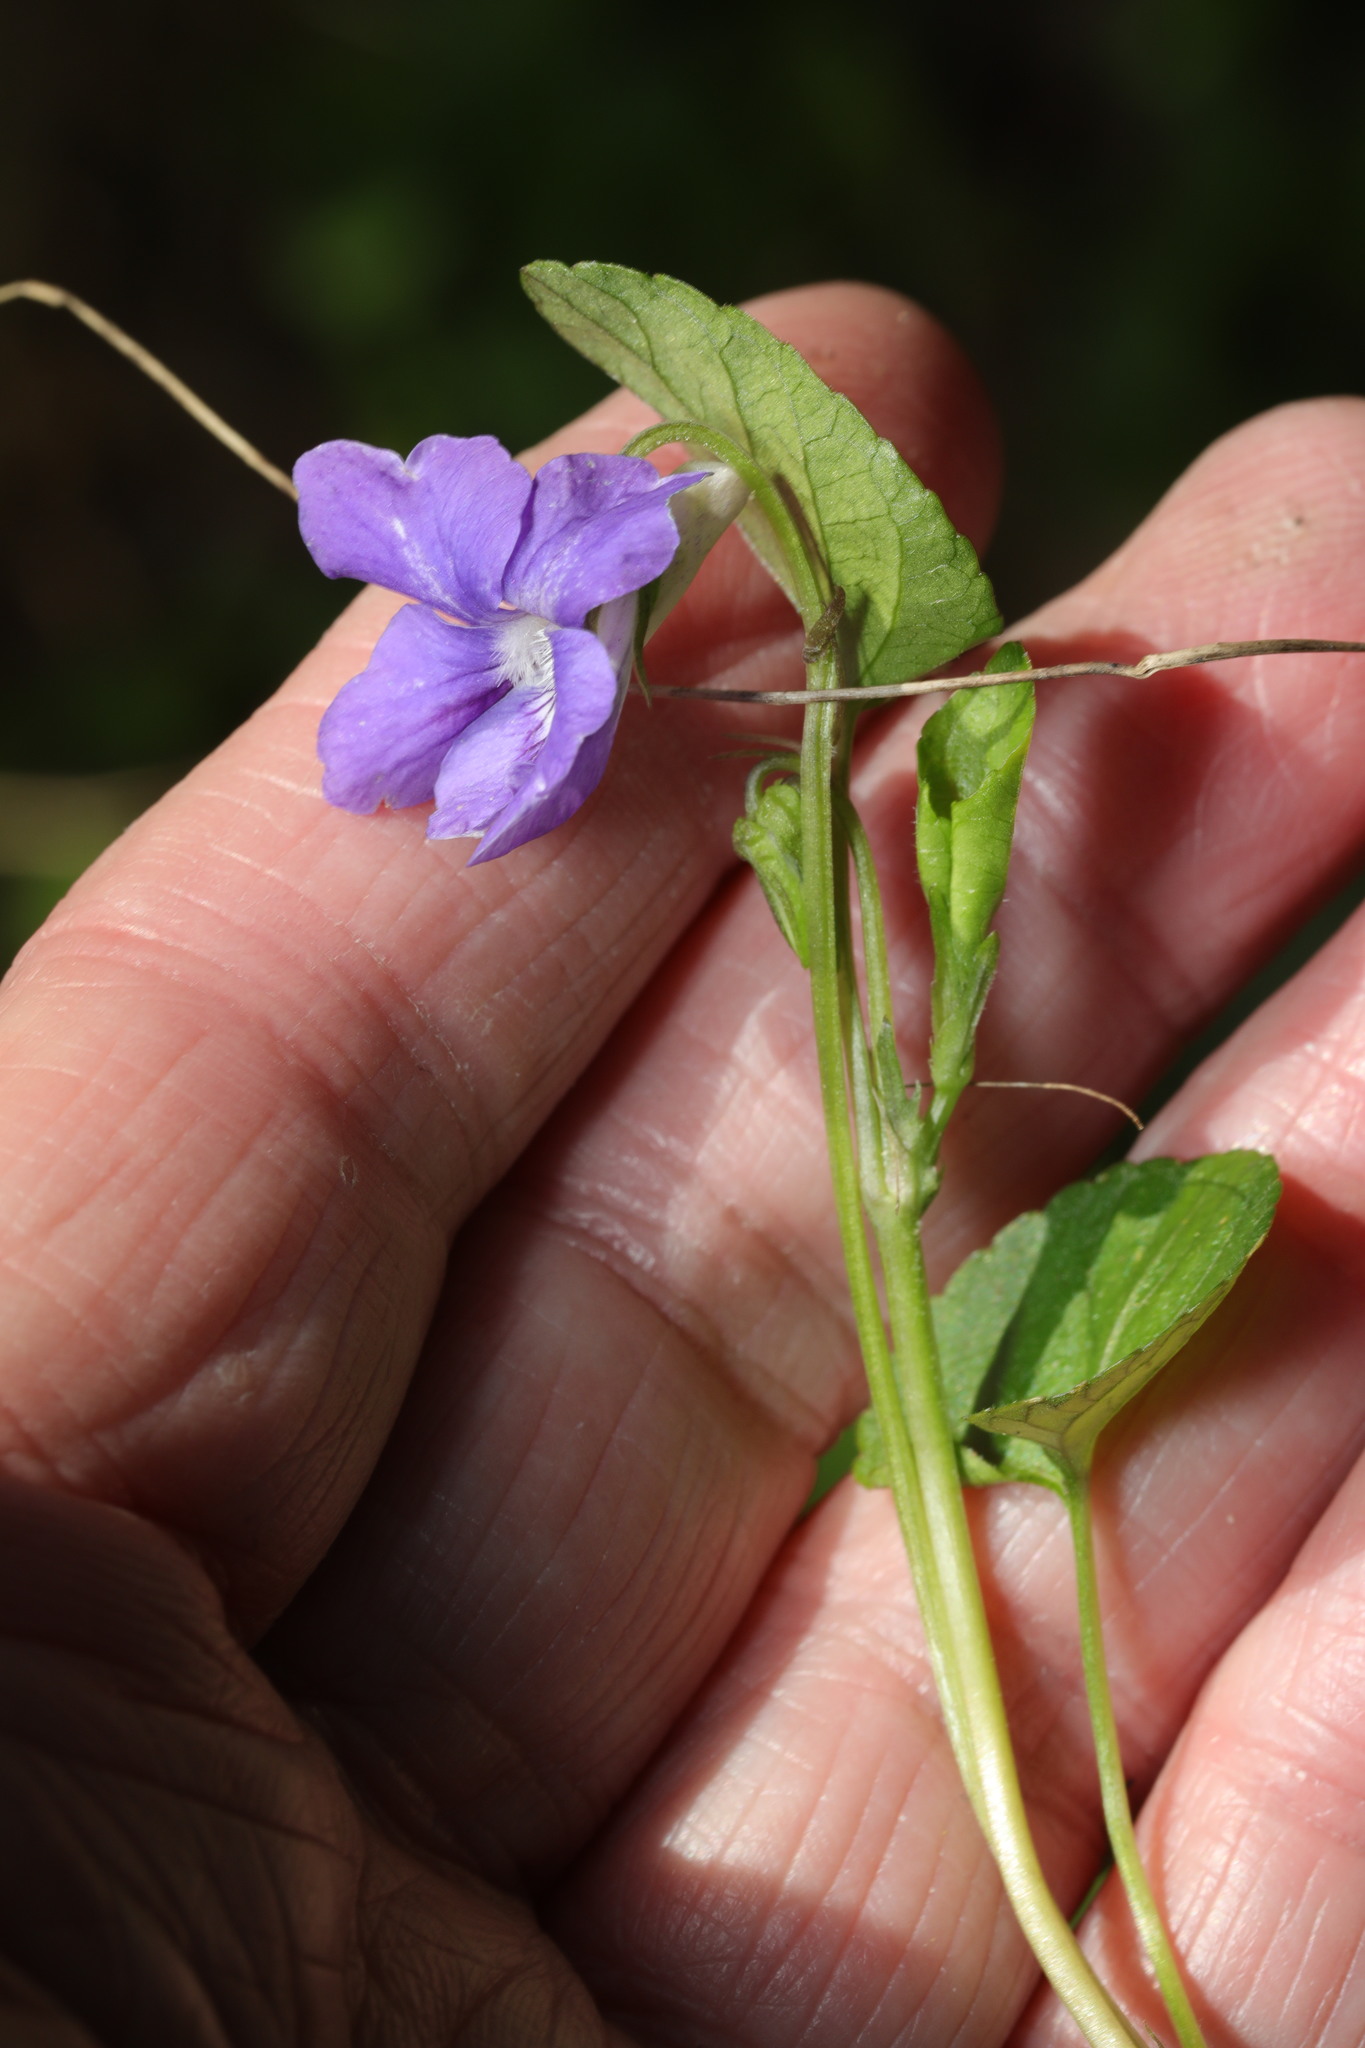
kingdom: Plantae
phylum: Tracheophyta
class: Magnoliopsida
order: Malpighiales
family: Violaceae
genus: Viola
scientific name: Viola riviniana
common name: Common dog-violet
